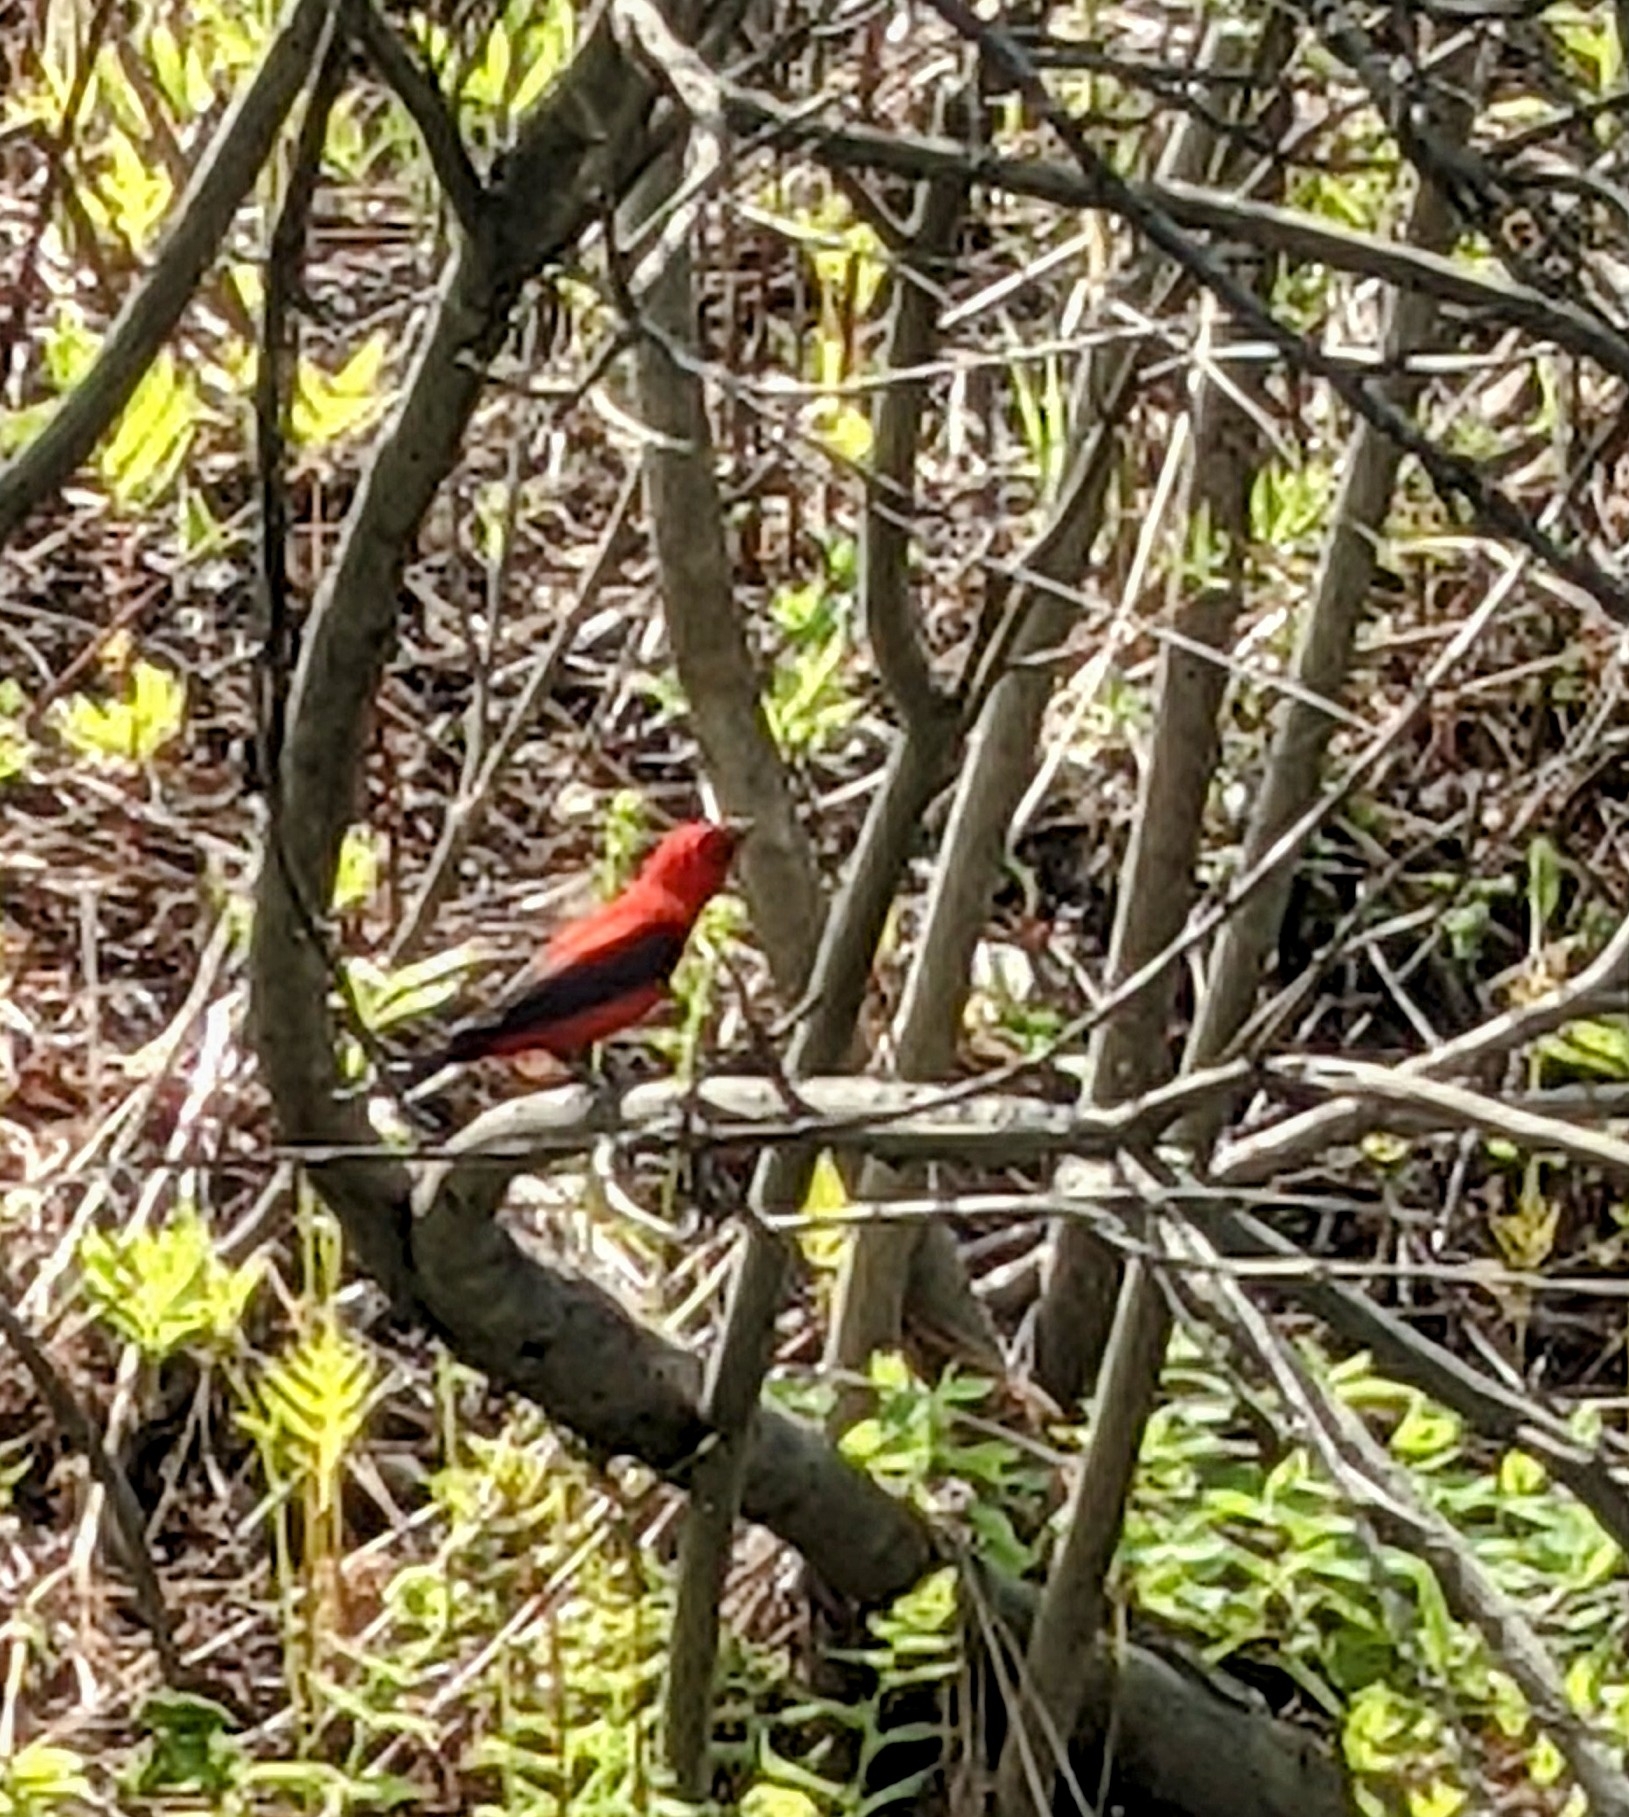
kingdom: Animalia
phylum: Chordata
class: Aves
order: Passeriformes
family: Cardinalidae
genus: Piranga
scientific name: Piranga olivacea
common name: Scarlet tanager
